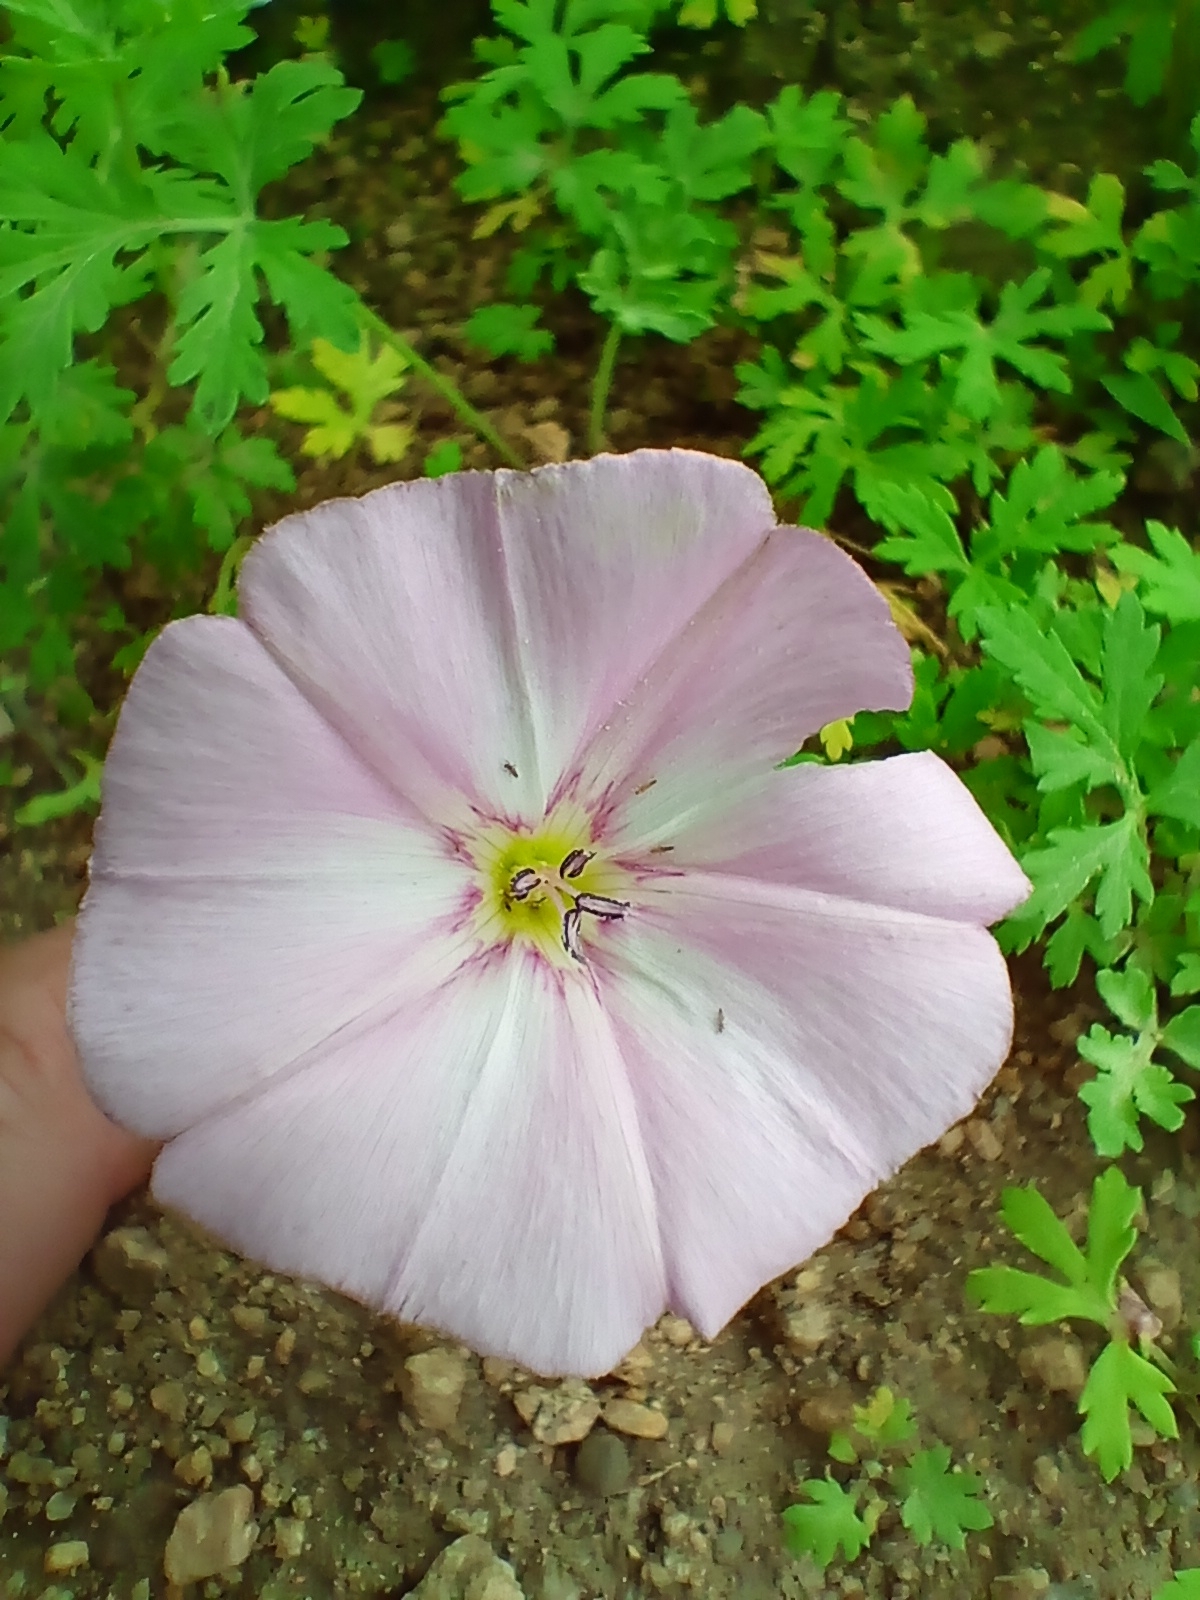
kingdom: Plantae
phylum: Tracheophyta
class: Magnoliopsida
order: Solanales
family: Convolvulaceae
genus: Convolvulus
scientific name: Convolvulus chinensis
